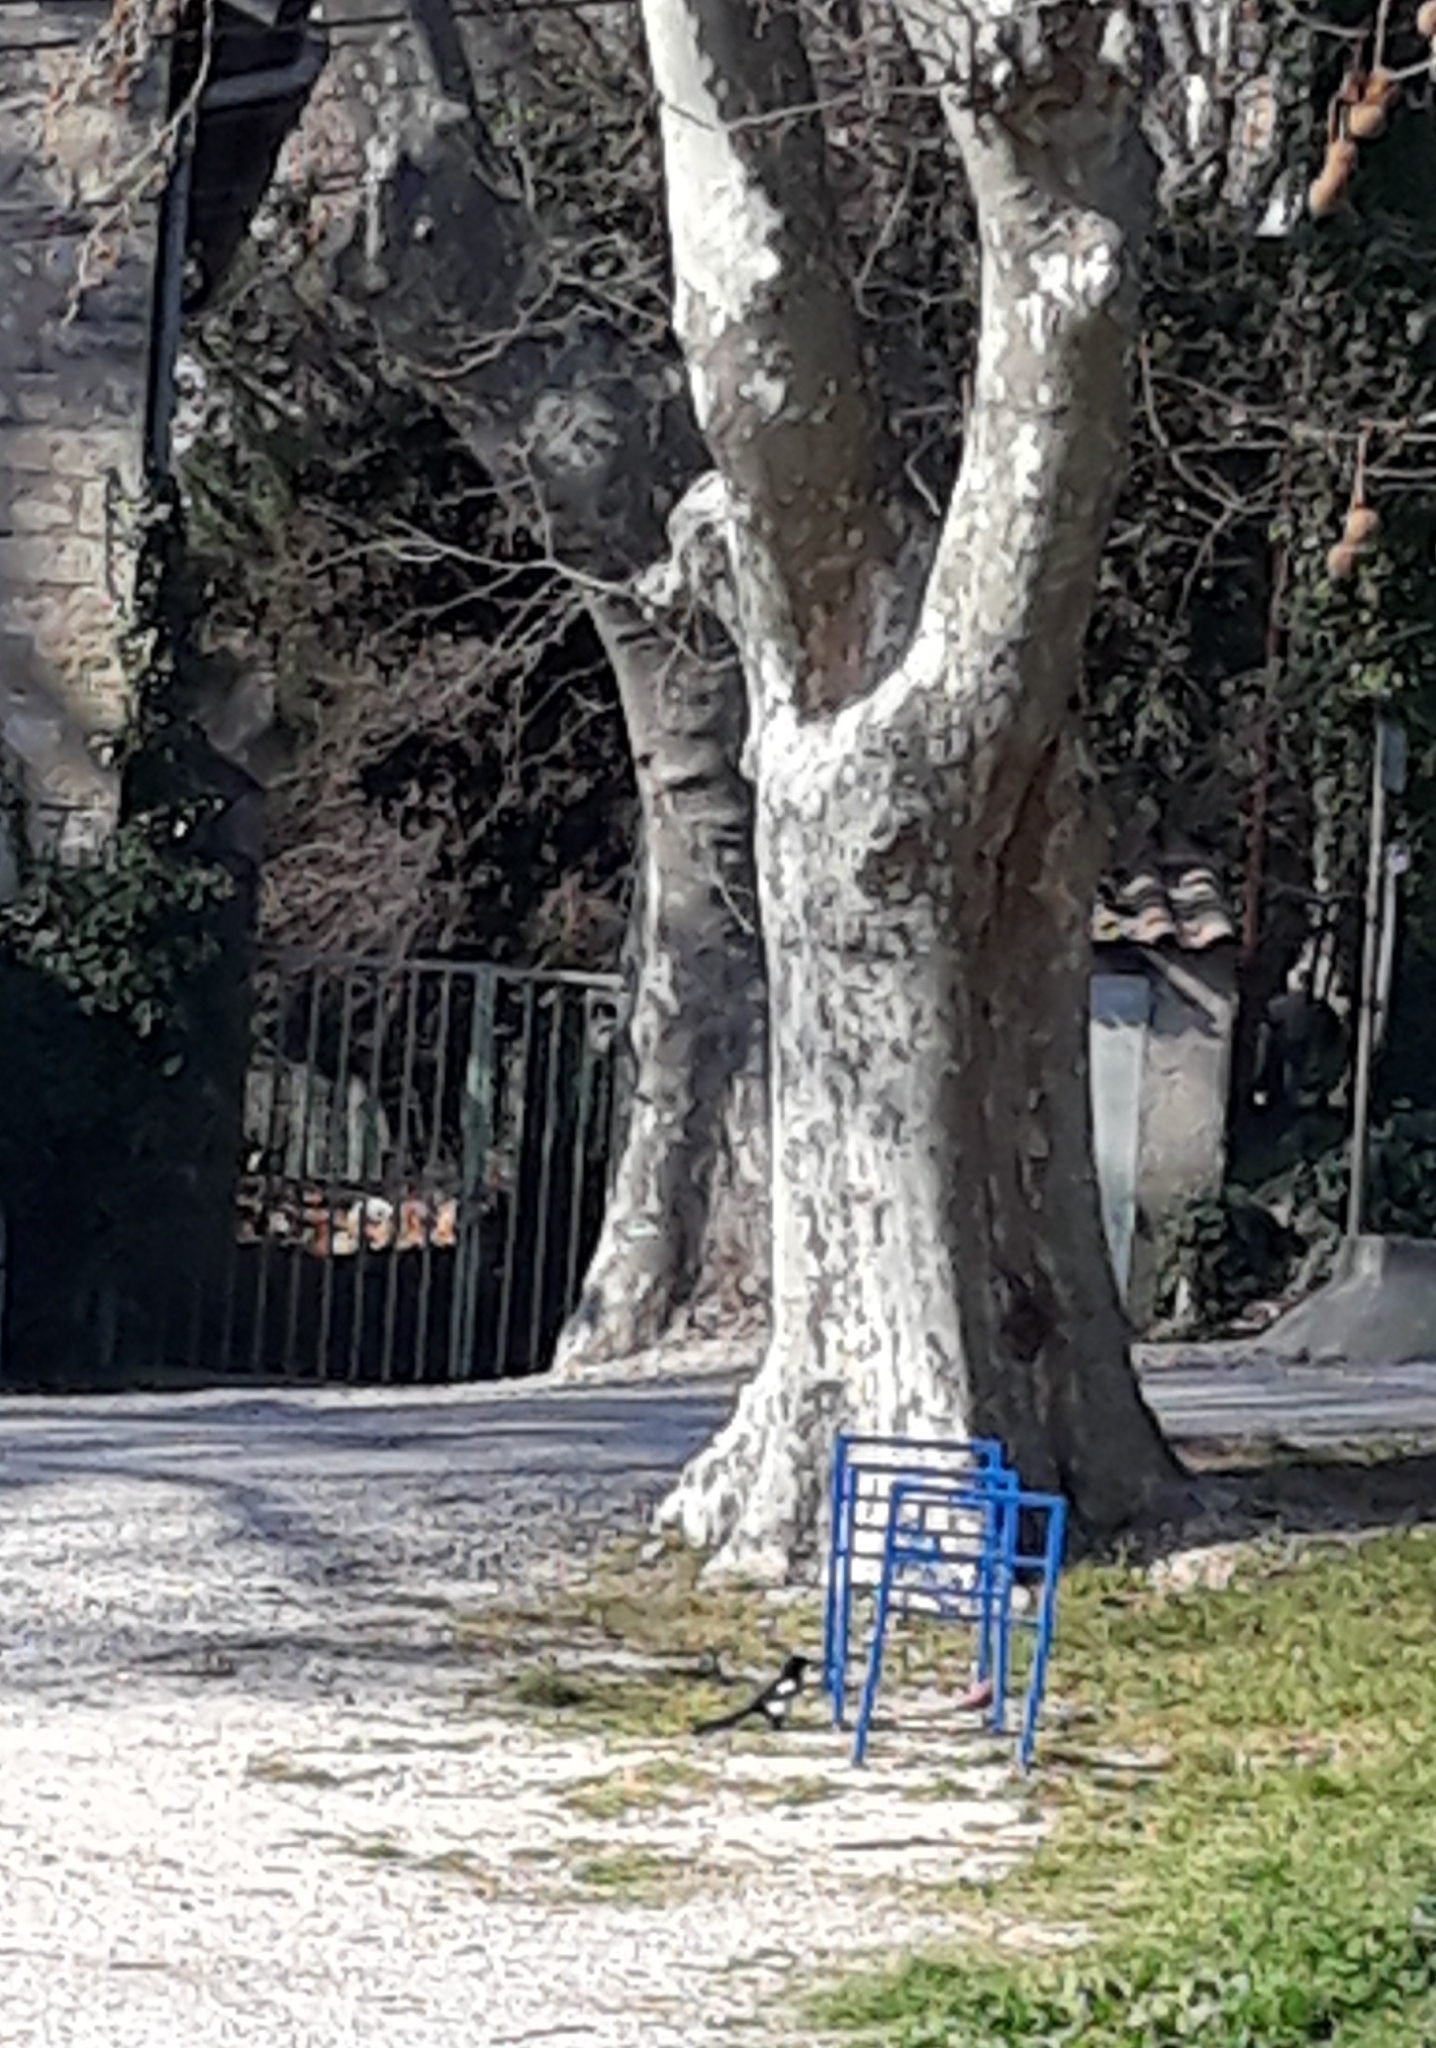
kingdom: Animalia
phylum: Chordata
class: Aves
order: Passeriformes
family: Corvidae
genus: Pica
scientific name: Pica pica
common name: Eurasian magpie
